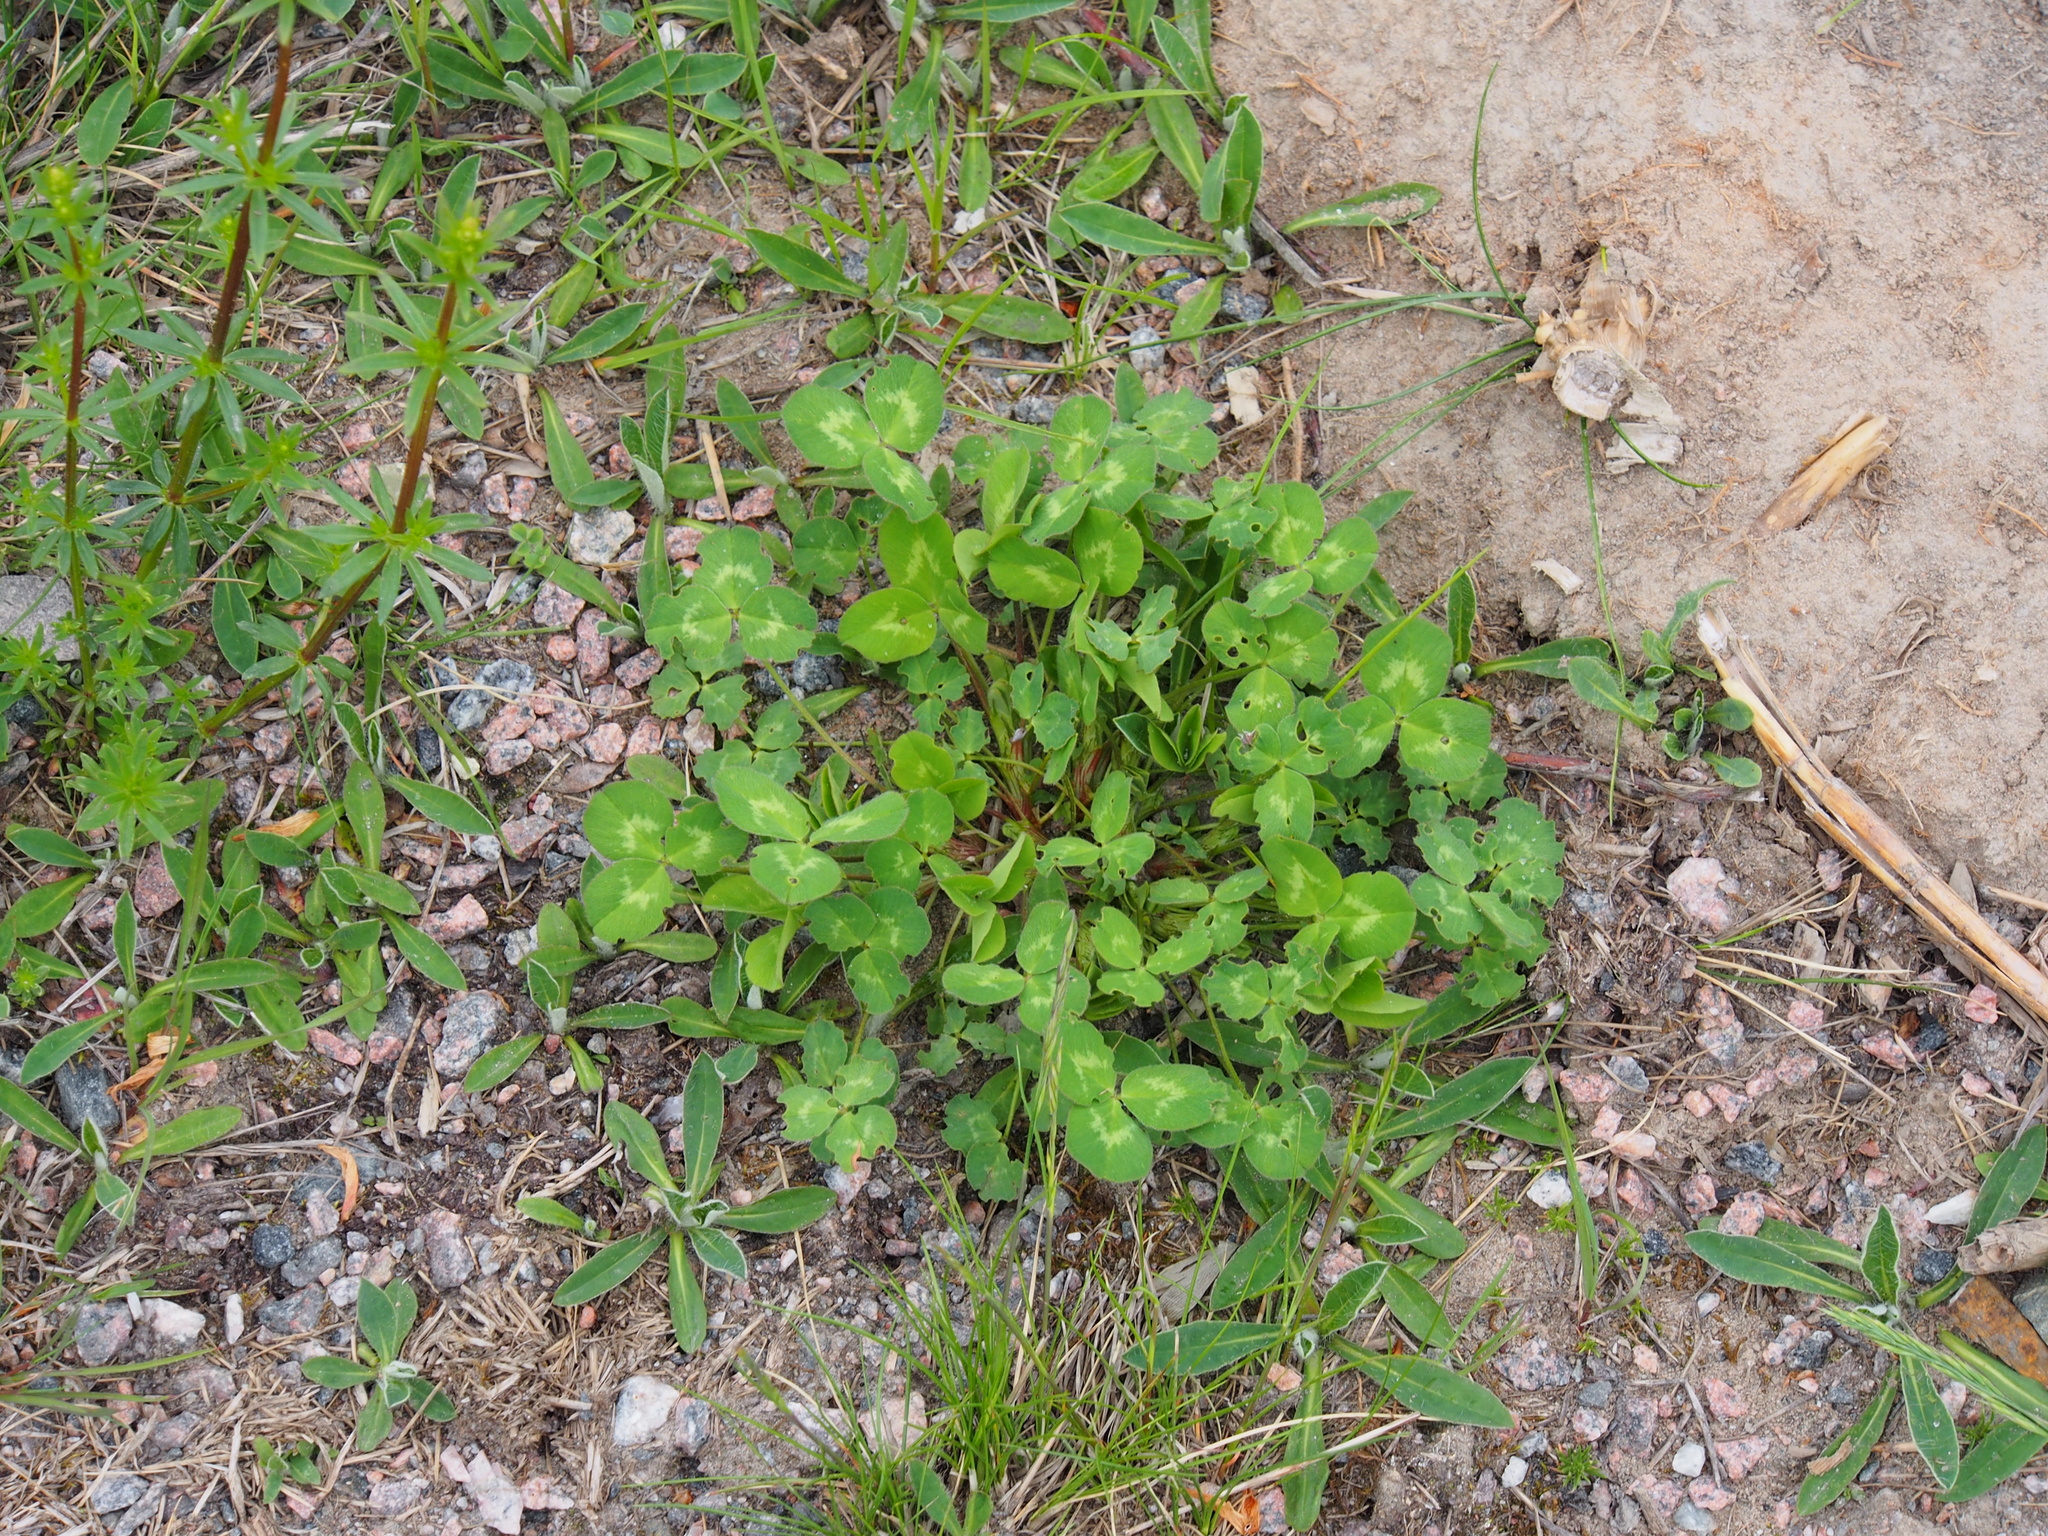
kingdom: Plantae
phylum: Tracheophyta
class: Magnoliopsida
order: Fabales
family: Fabaceae
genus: Trifolium
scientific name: Trifolium pratense
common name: Red clover
